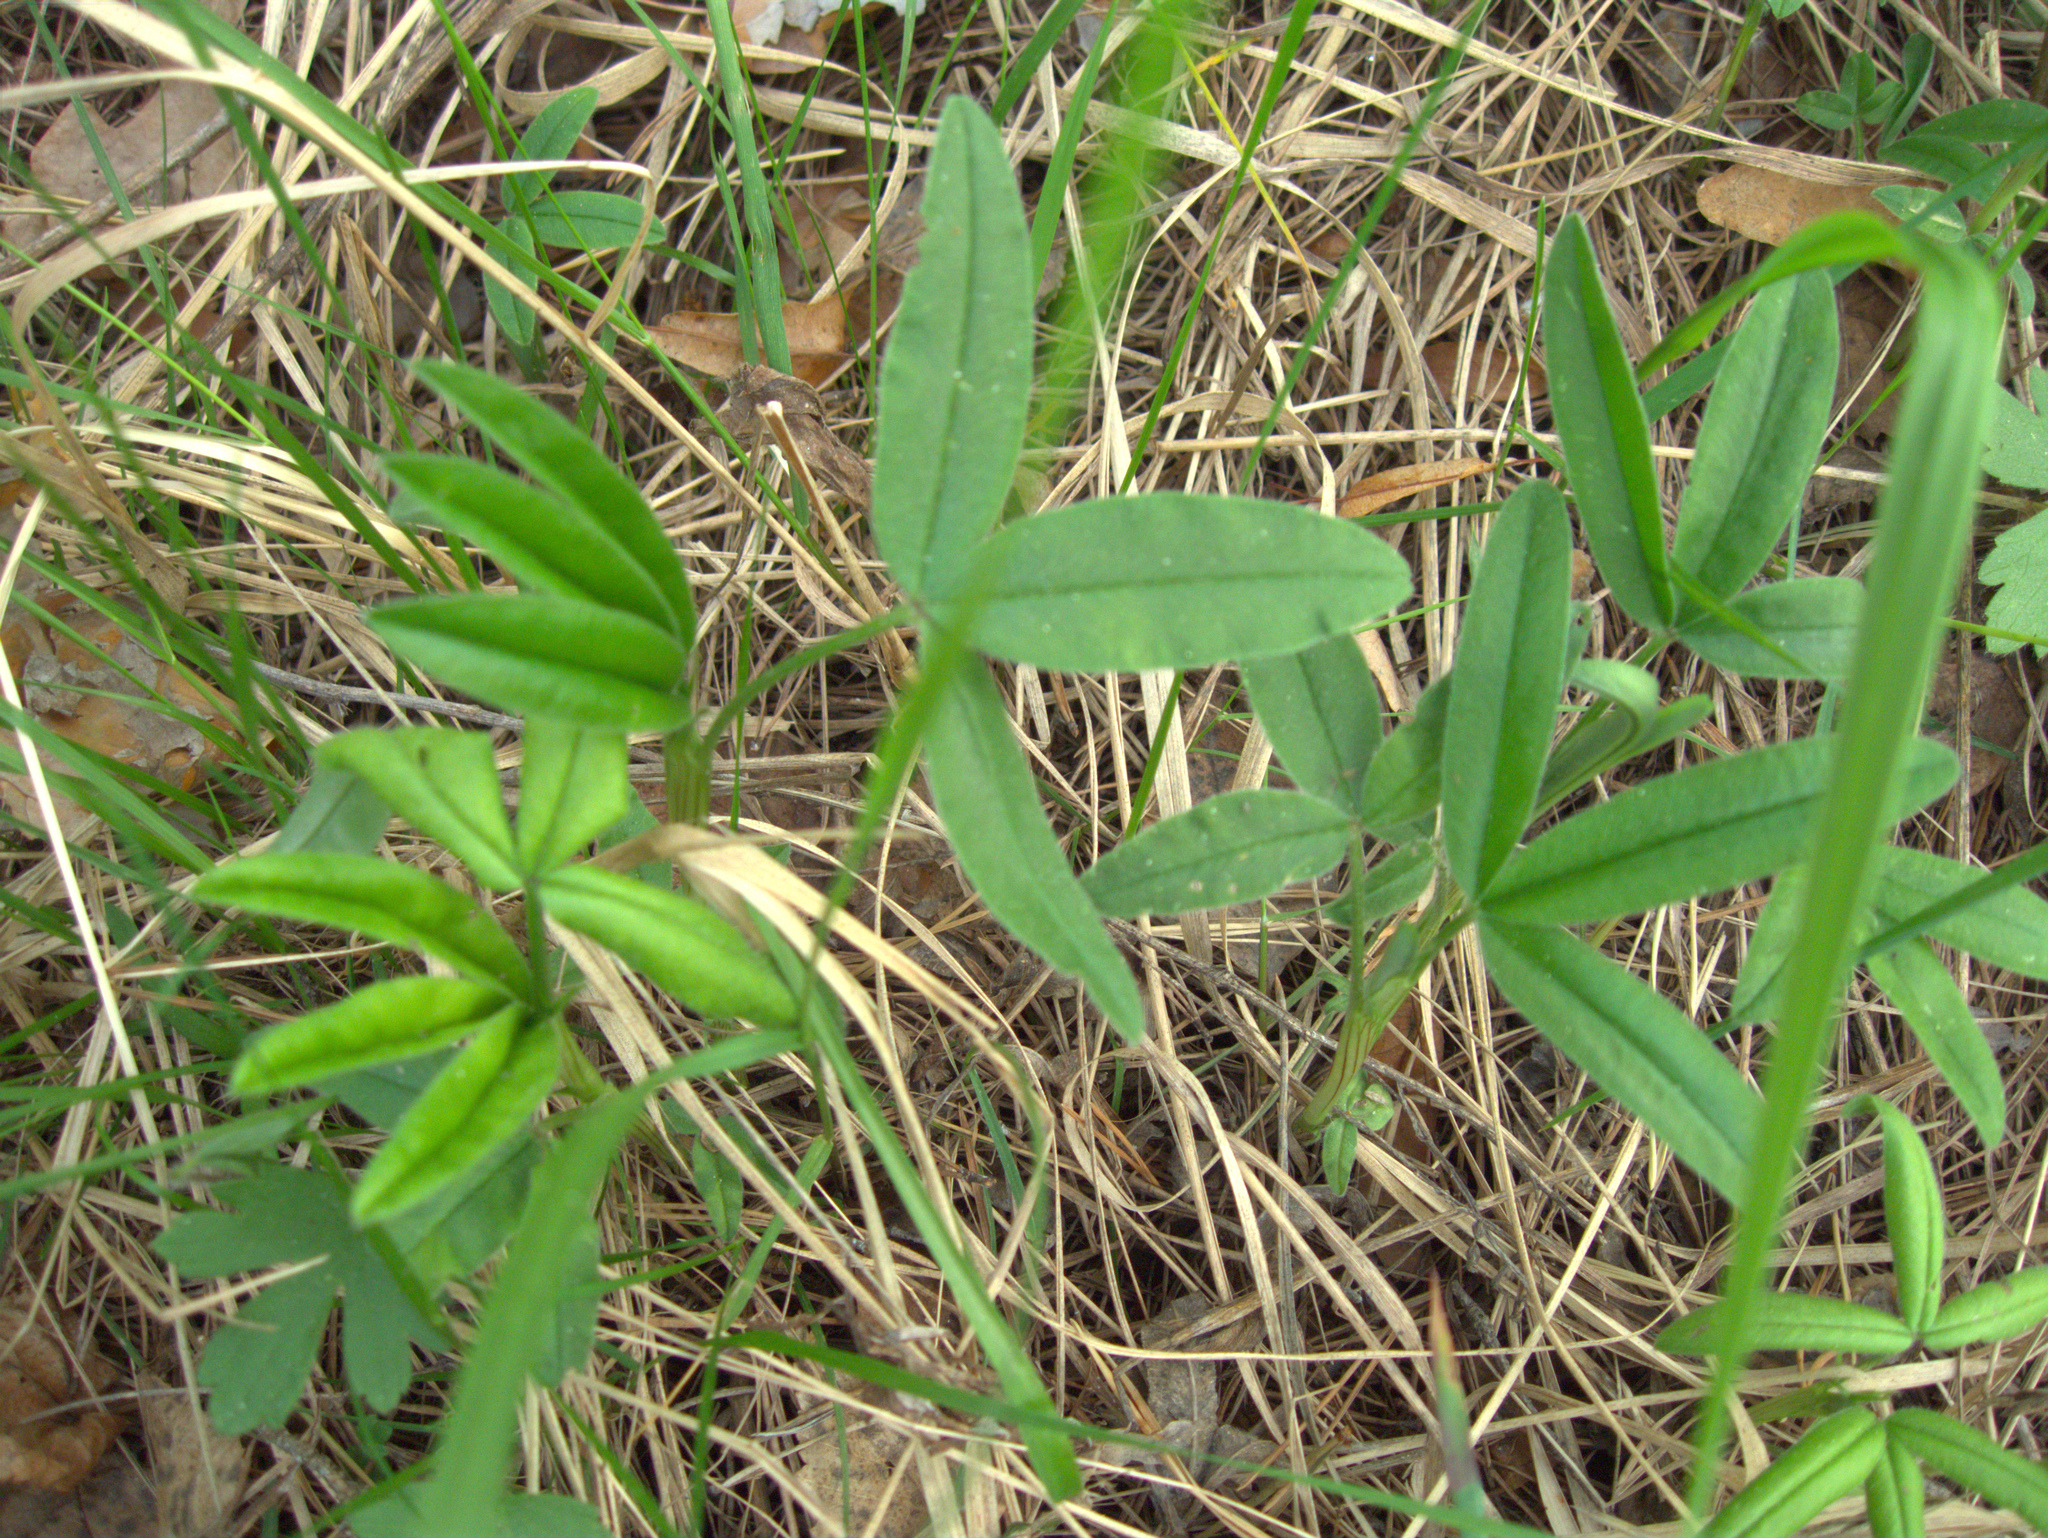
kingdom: Plantae
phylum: Tracheophyta
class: Magnoliopsida
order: Fabales
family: Fabaceae
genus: Trifolium
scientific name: Trifolium medium
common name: Zigzag clover
